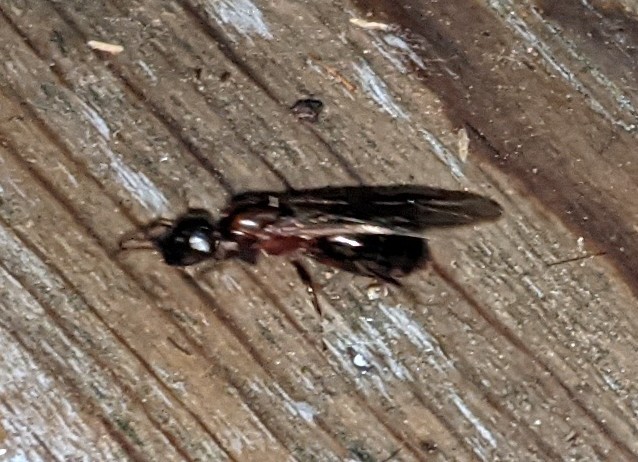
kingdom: Animalia
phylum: Arthropoda
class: Insecta
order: Hymenoptera
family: Formicidae
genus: Camponotus
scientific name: Camponotus novaeboracensis
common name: New york carpenter ant
